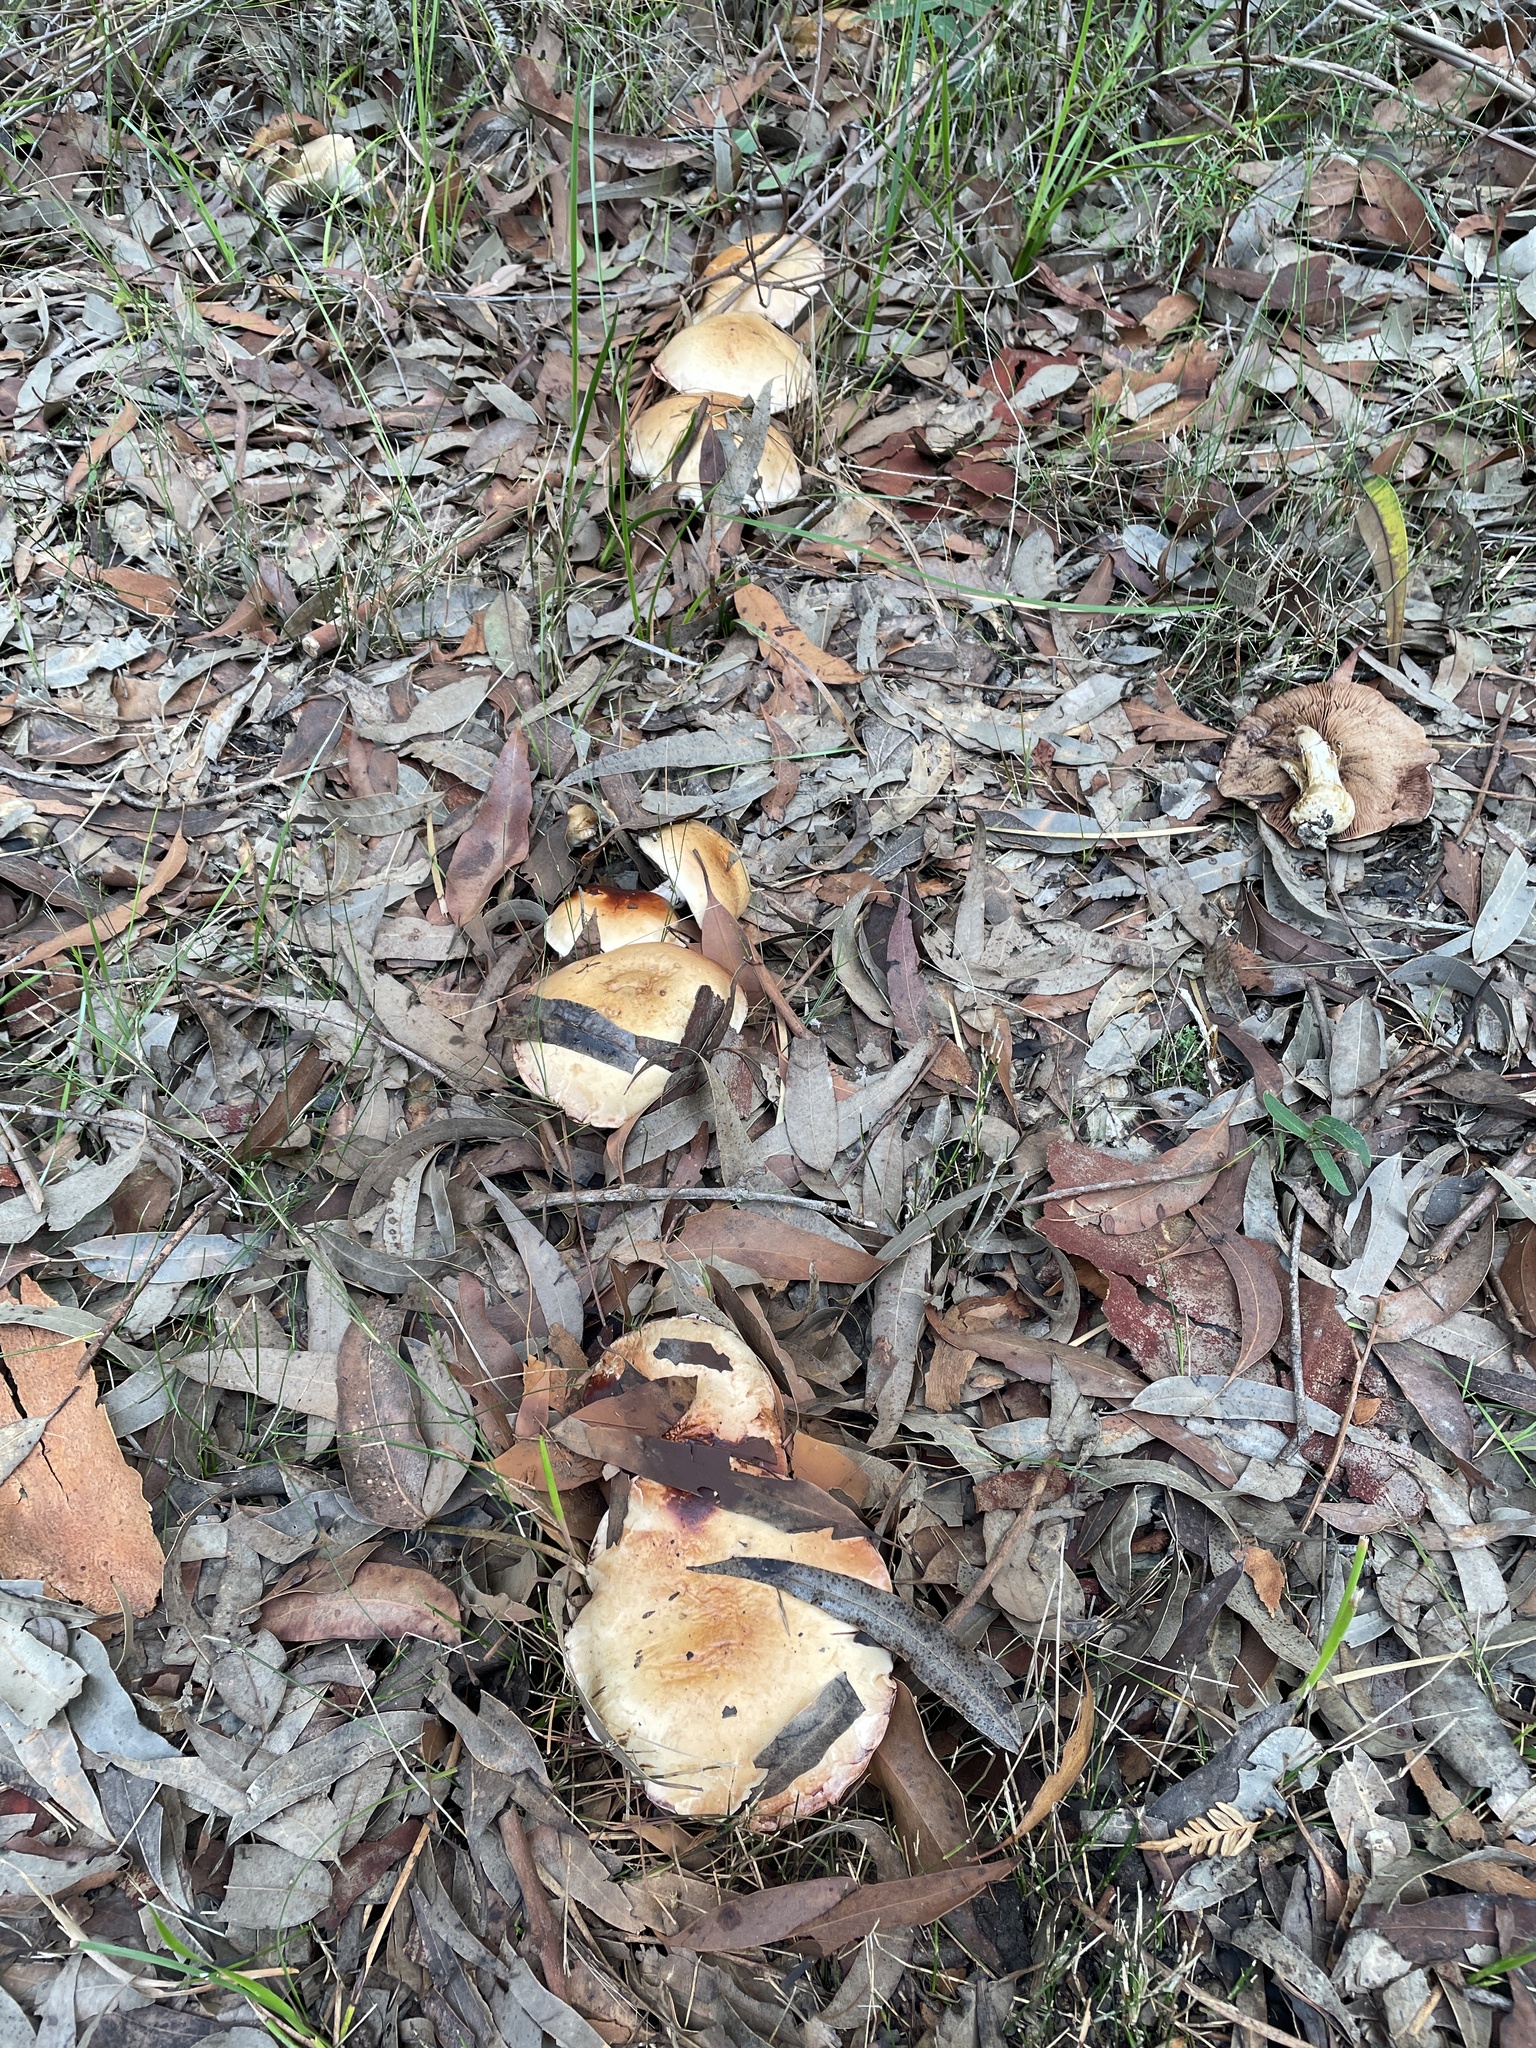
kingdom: Fungi
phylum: Basidiomycota
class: Agaricomycetes
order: Agaricales
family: Hymenogastraceae
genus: Hebeloma
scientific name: Hebeloma victoriense
